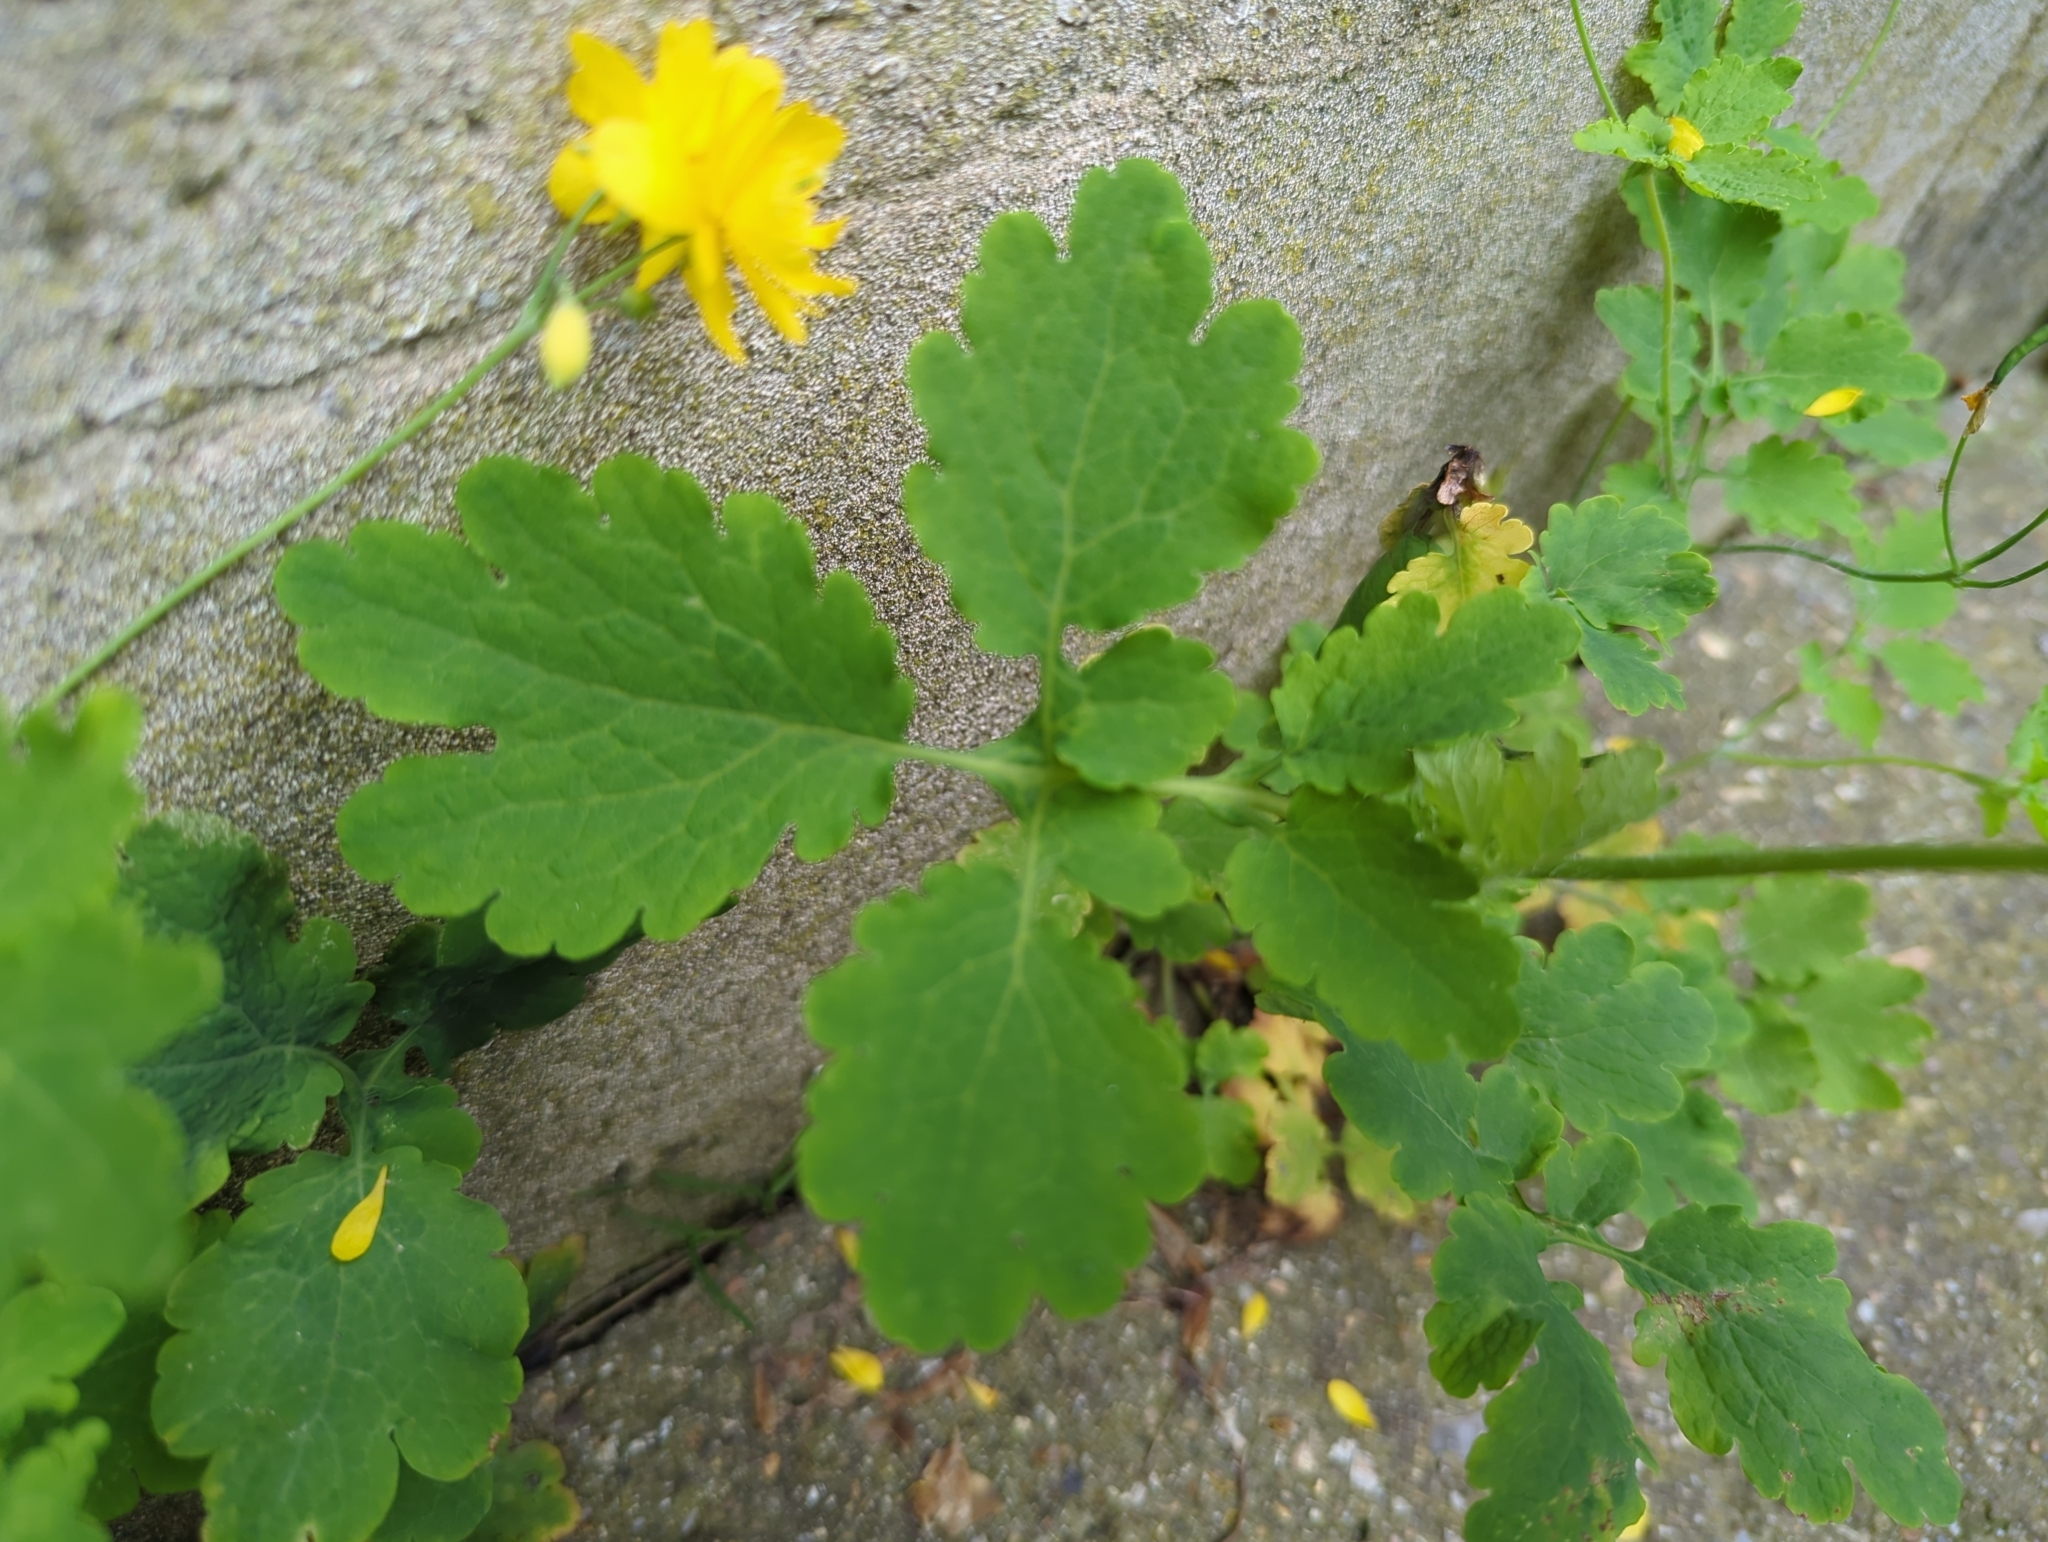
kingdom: Plantae
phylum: Tracheophyta
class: Magnoliopsida
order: Ranunculales
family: Papaveraceae
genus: Chelidonium
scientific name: Chelidonium majus
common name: Greater celandine
